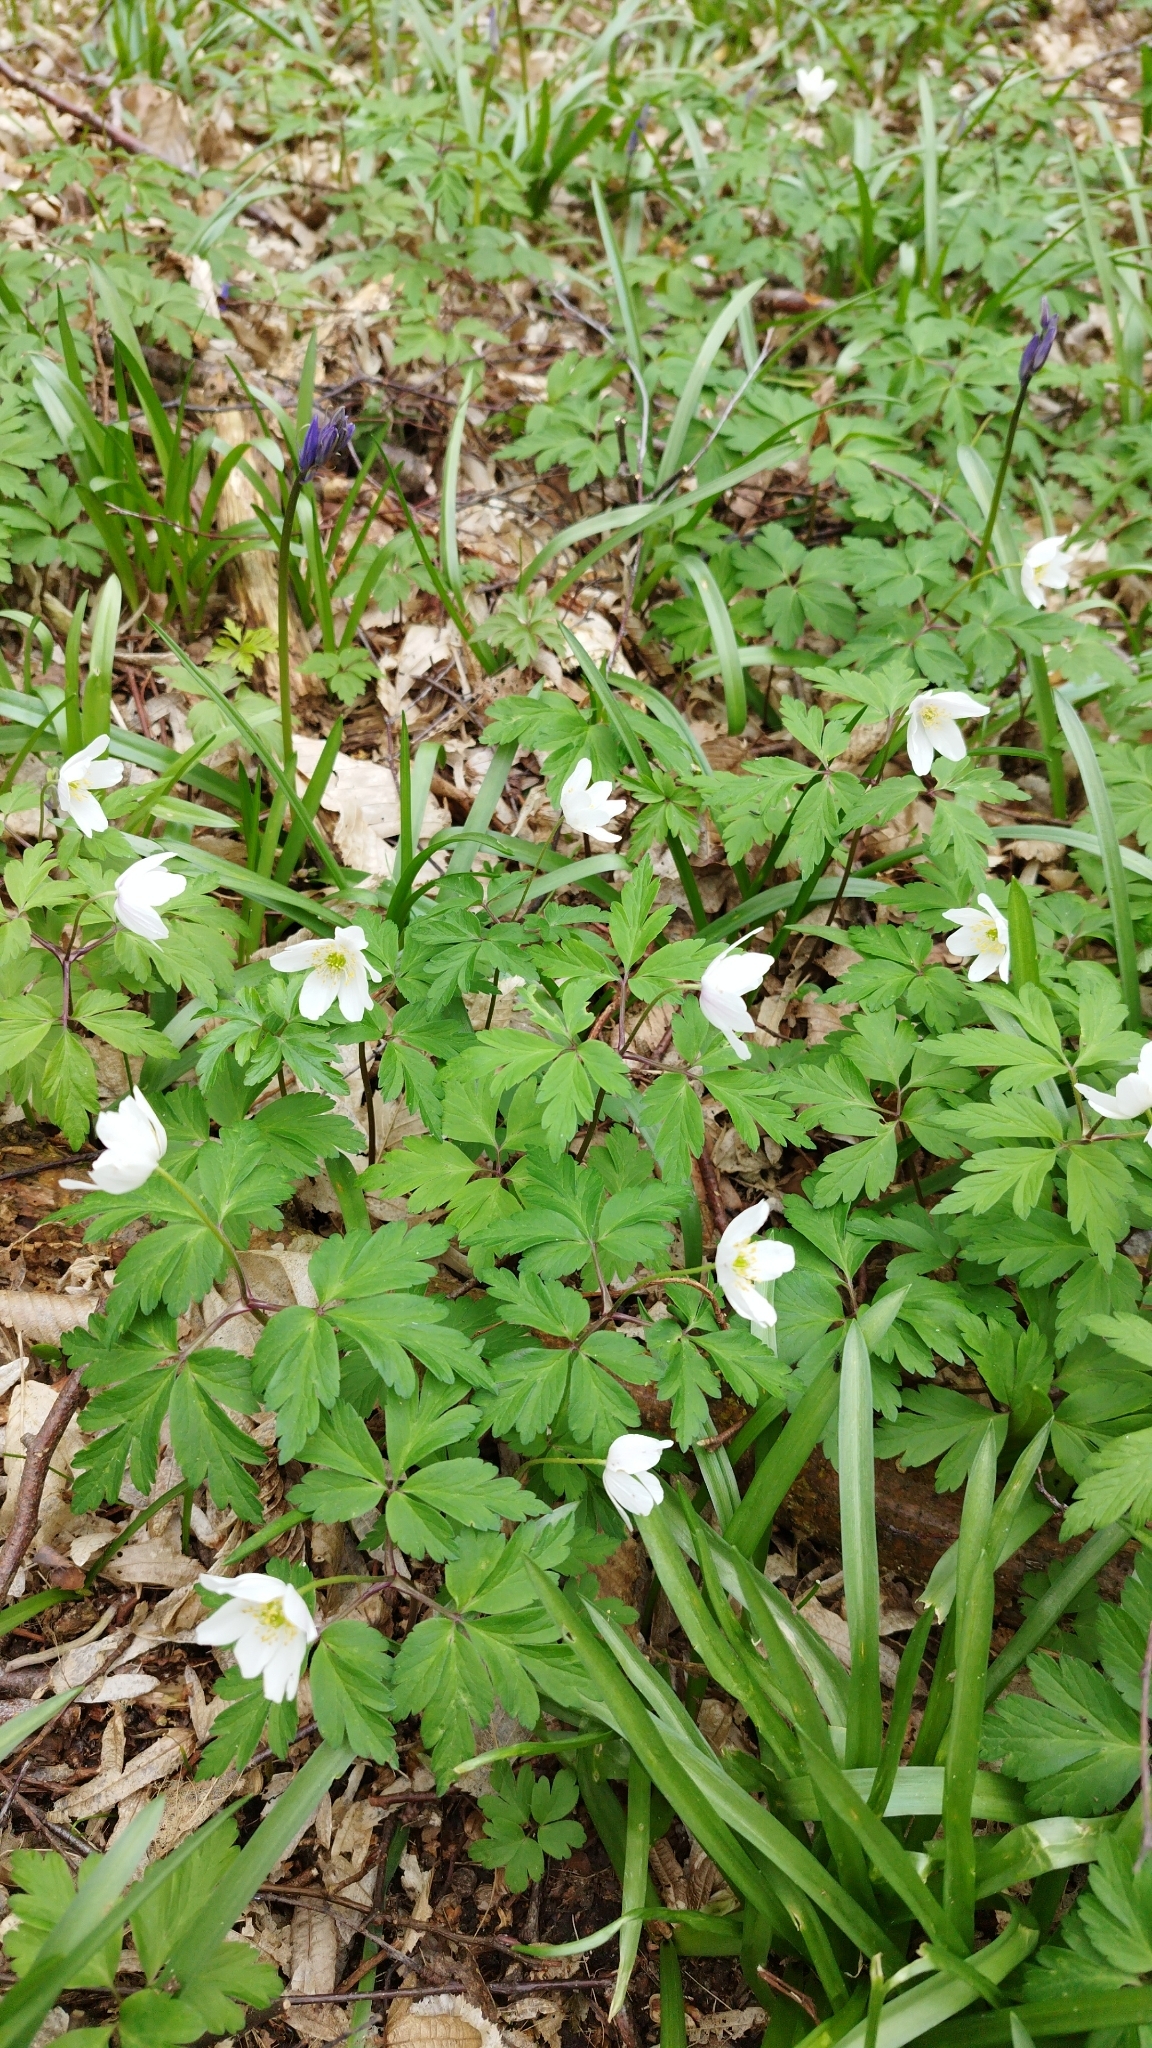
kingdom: Plantae
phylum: Tracheophyta
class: Magnoliopsida
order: Ranunculales
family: Ranunculaceae
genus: Anemone
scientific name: Anemone nemorosa
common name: Wood anemone
